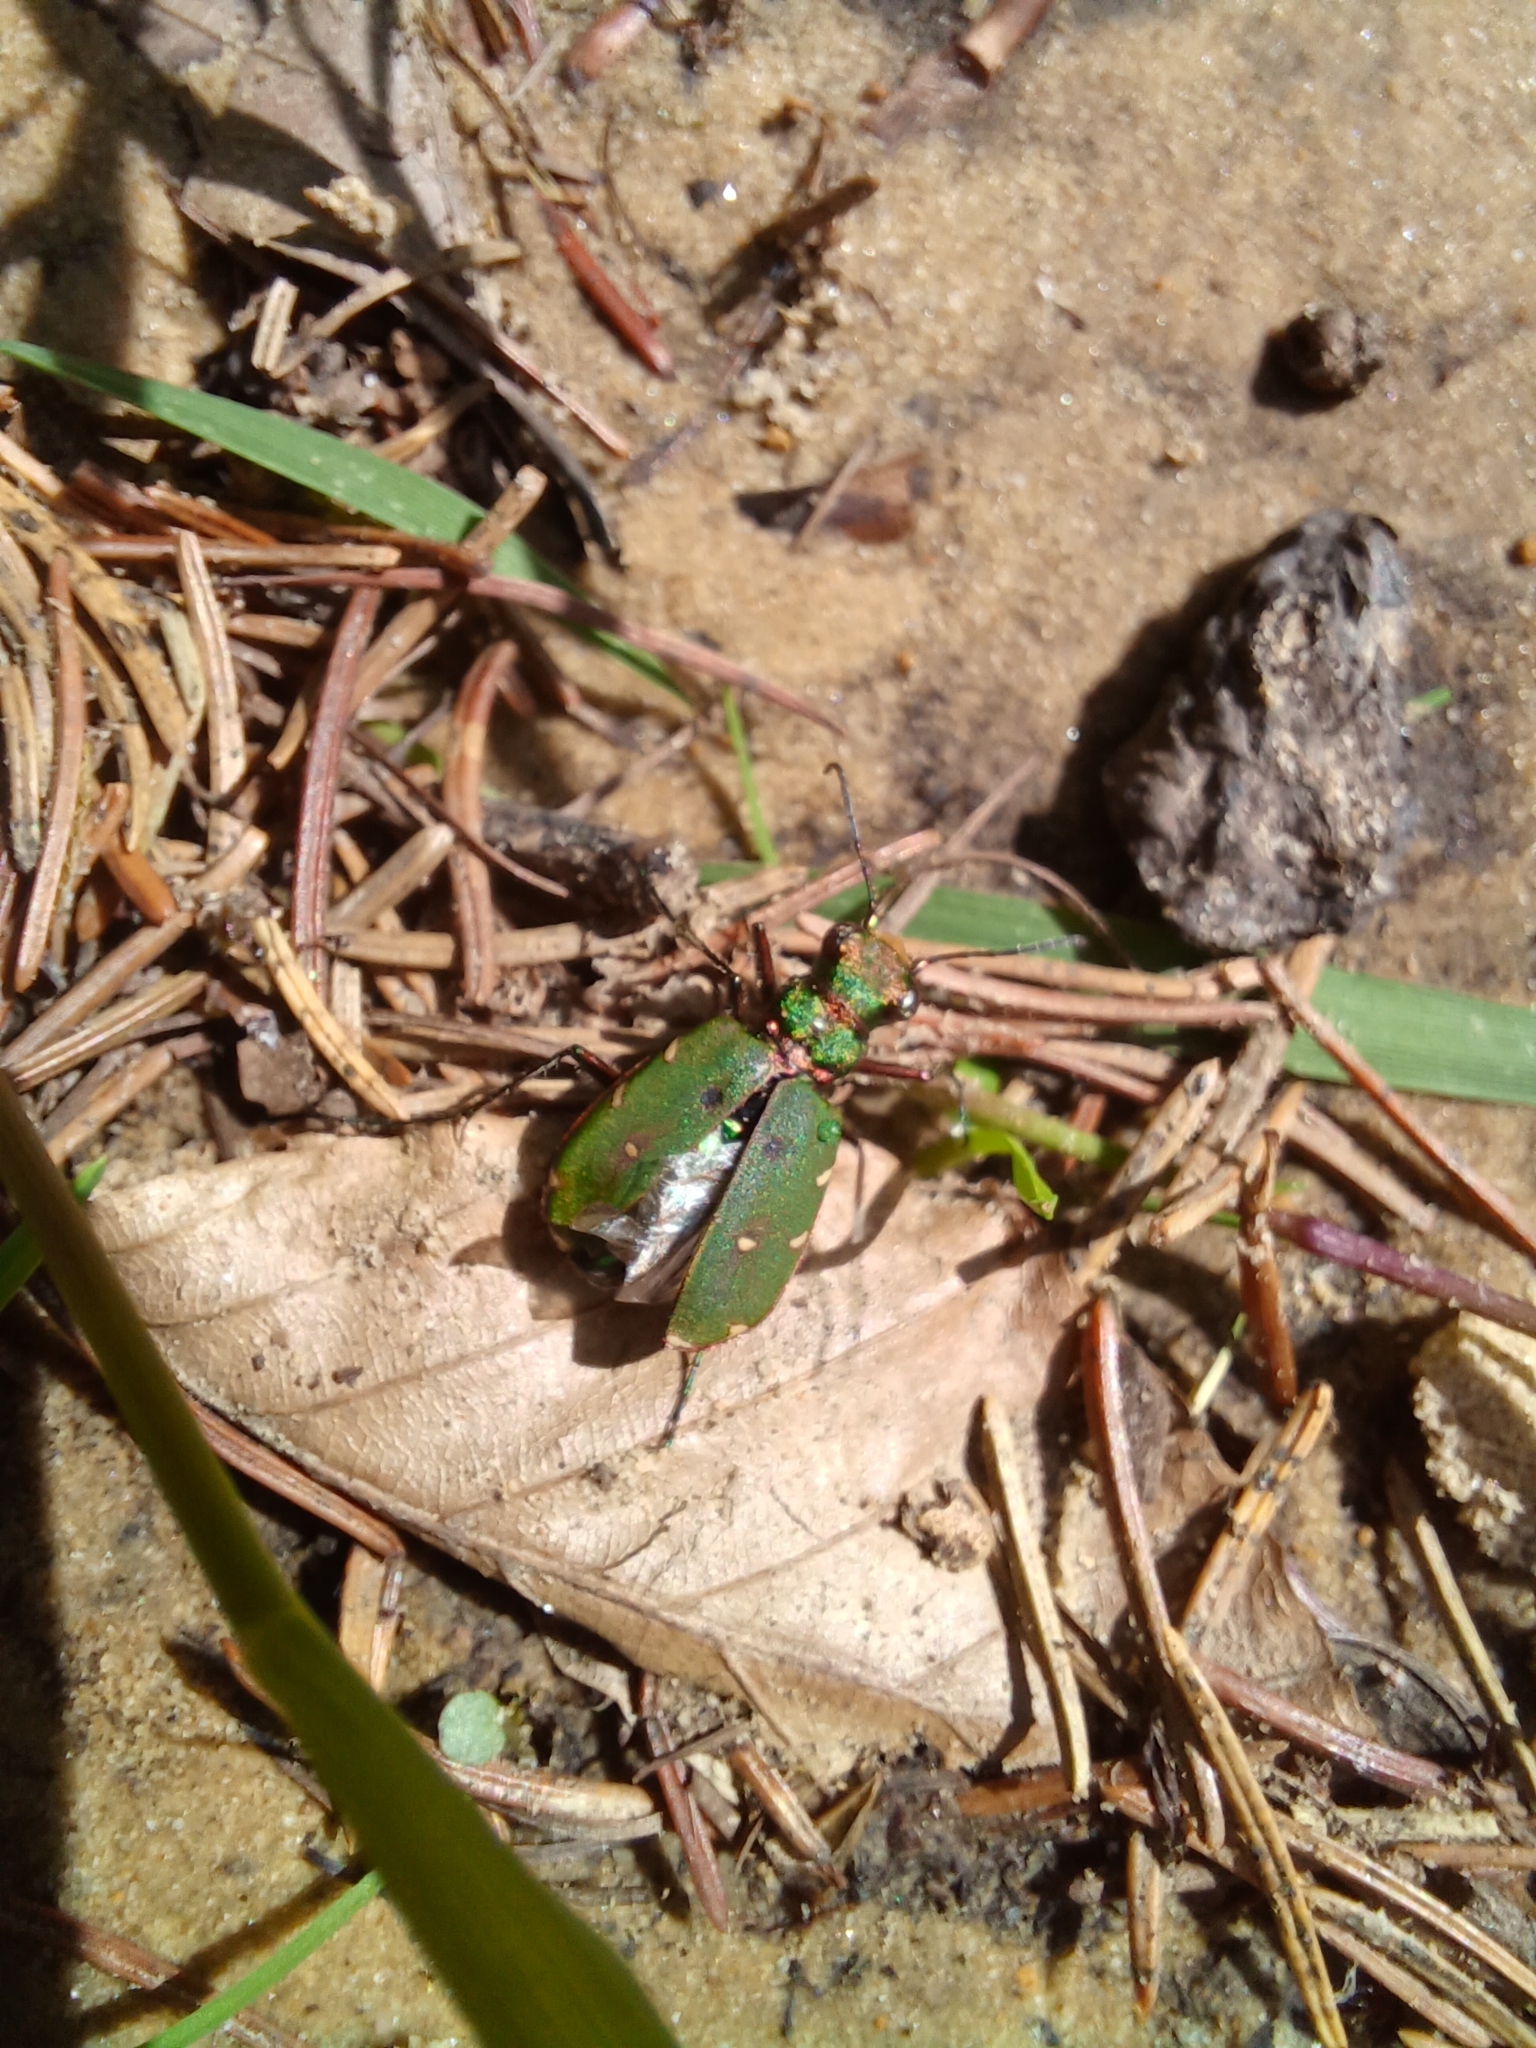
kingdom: Animalia
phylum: Arthropoda
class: Insecta
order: Coleoptera
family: Carabidae
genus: Cicindela
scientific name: Cicindela campestris
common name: Common tiger beetle
